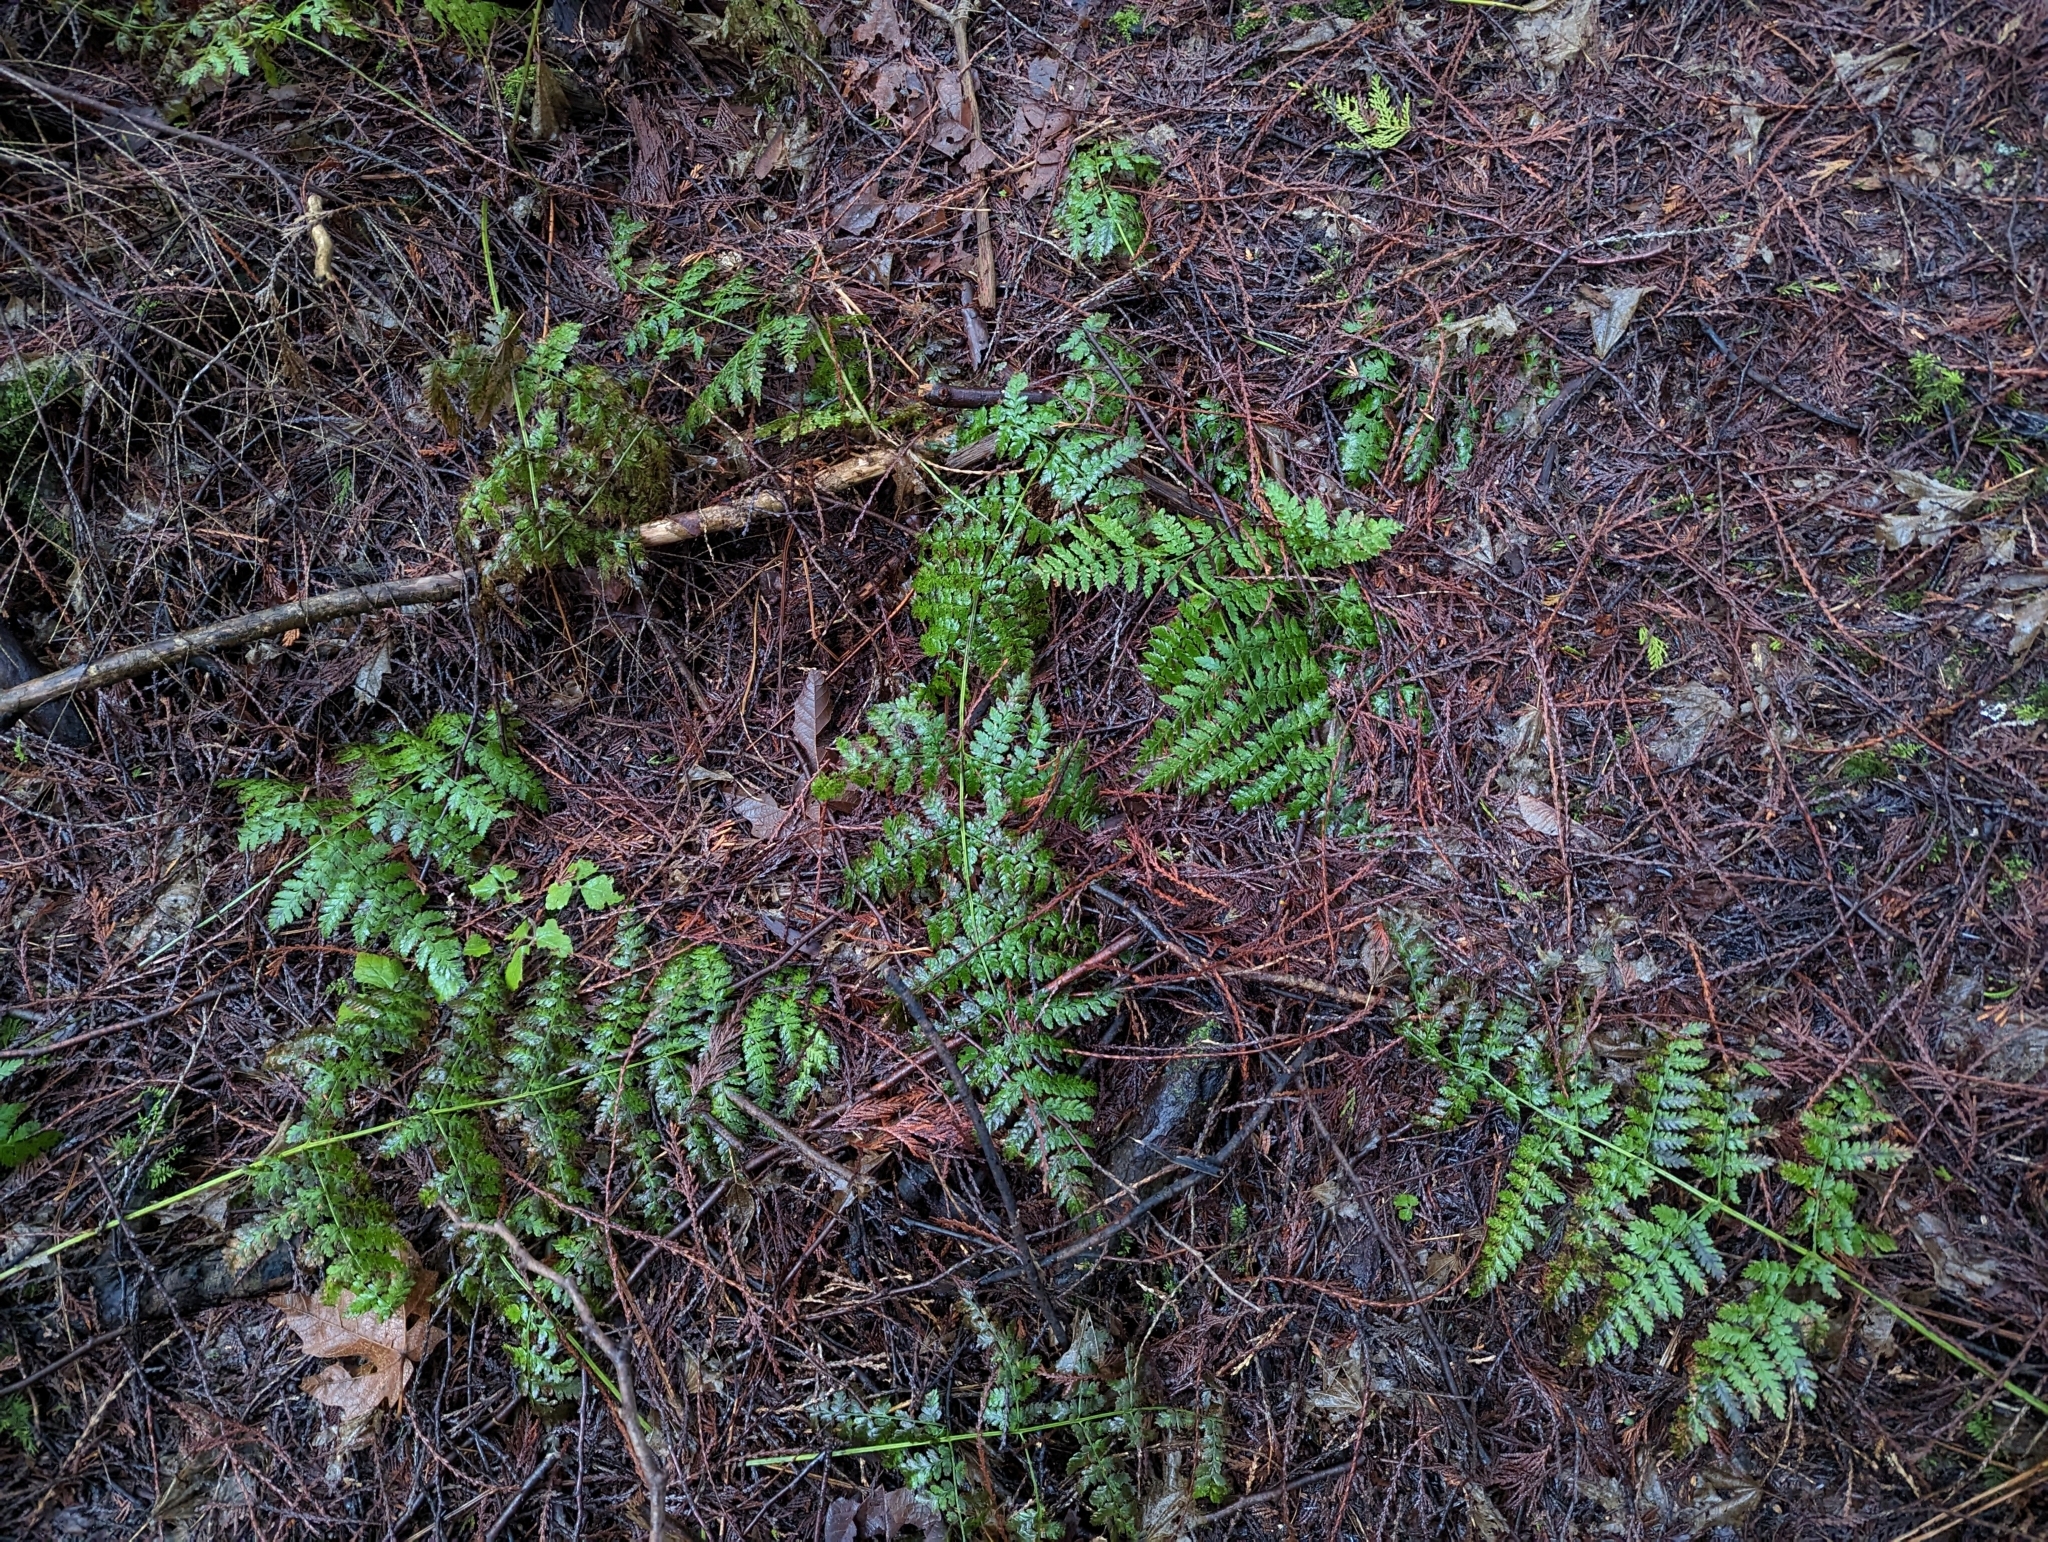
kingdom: Plantae
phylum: Tracheophyta
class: Polypodiopsida
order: Polypodiales
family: Dryopteridaceae
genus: Dryopteris
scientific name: Dryopteris expansa
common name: Northern buckler fern
